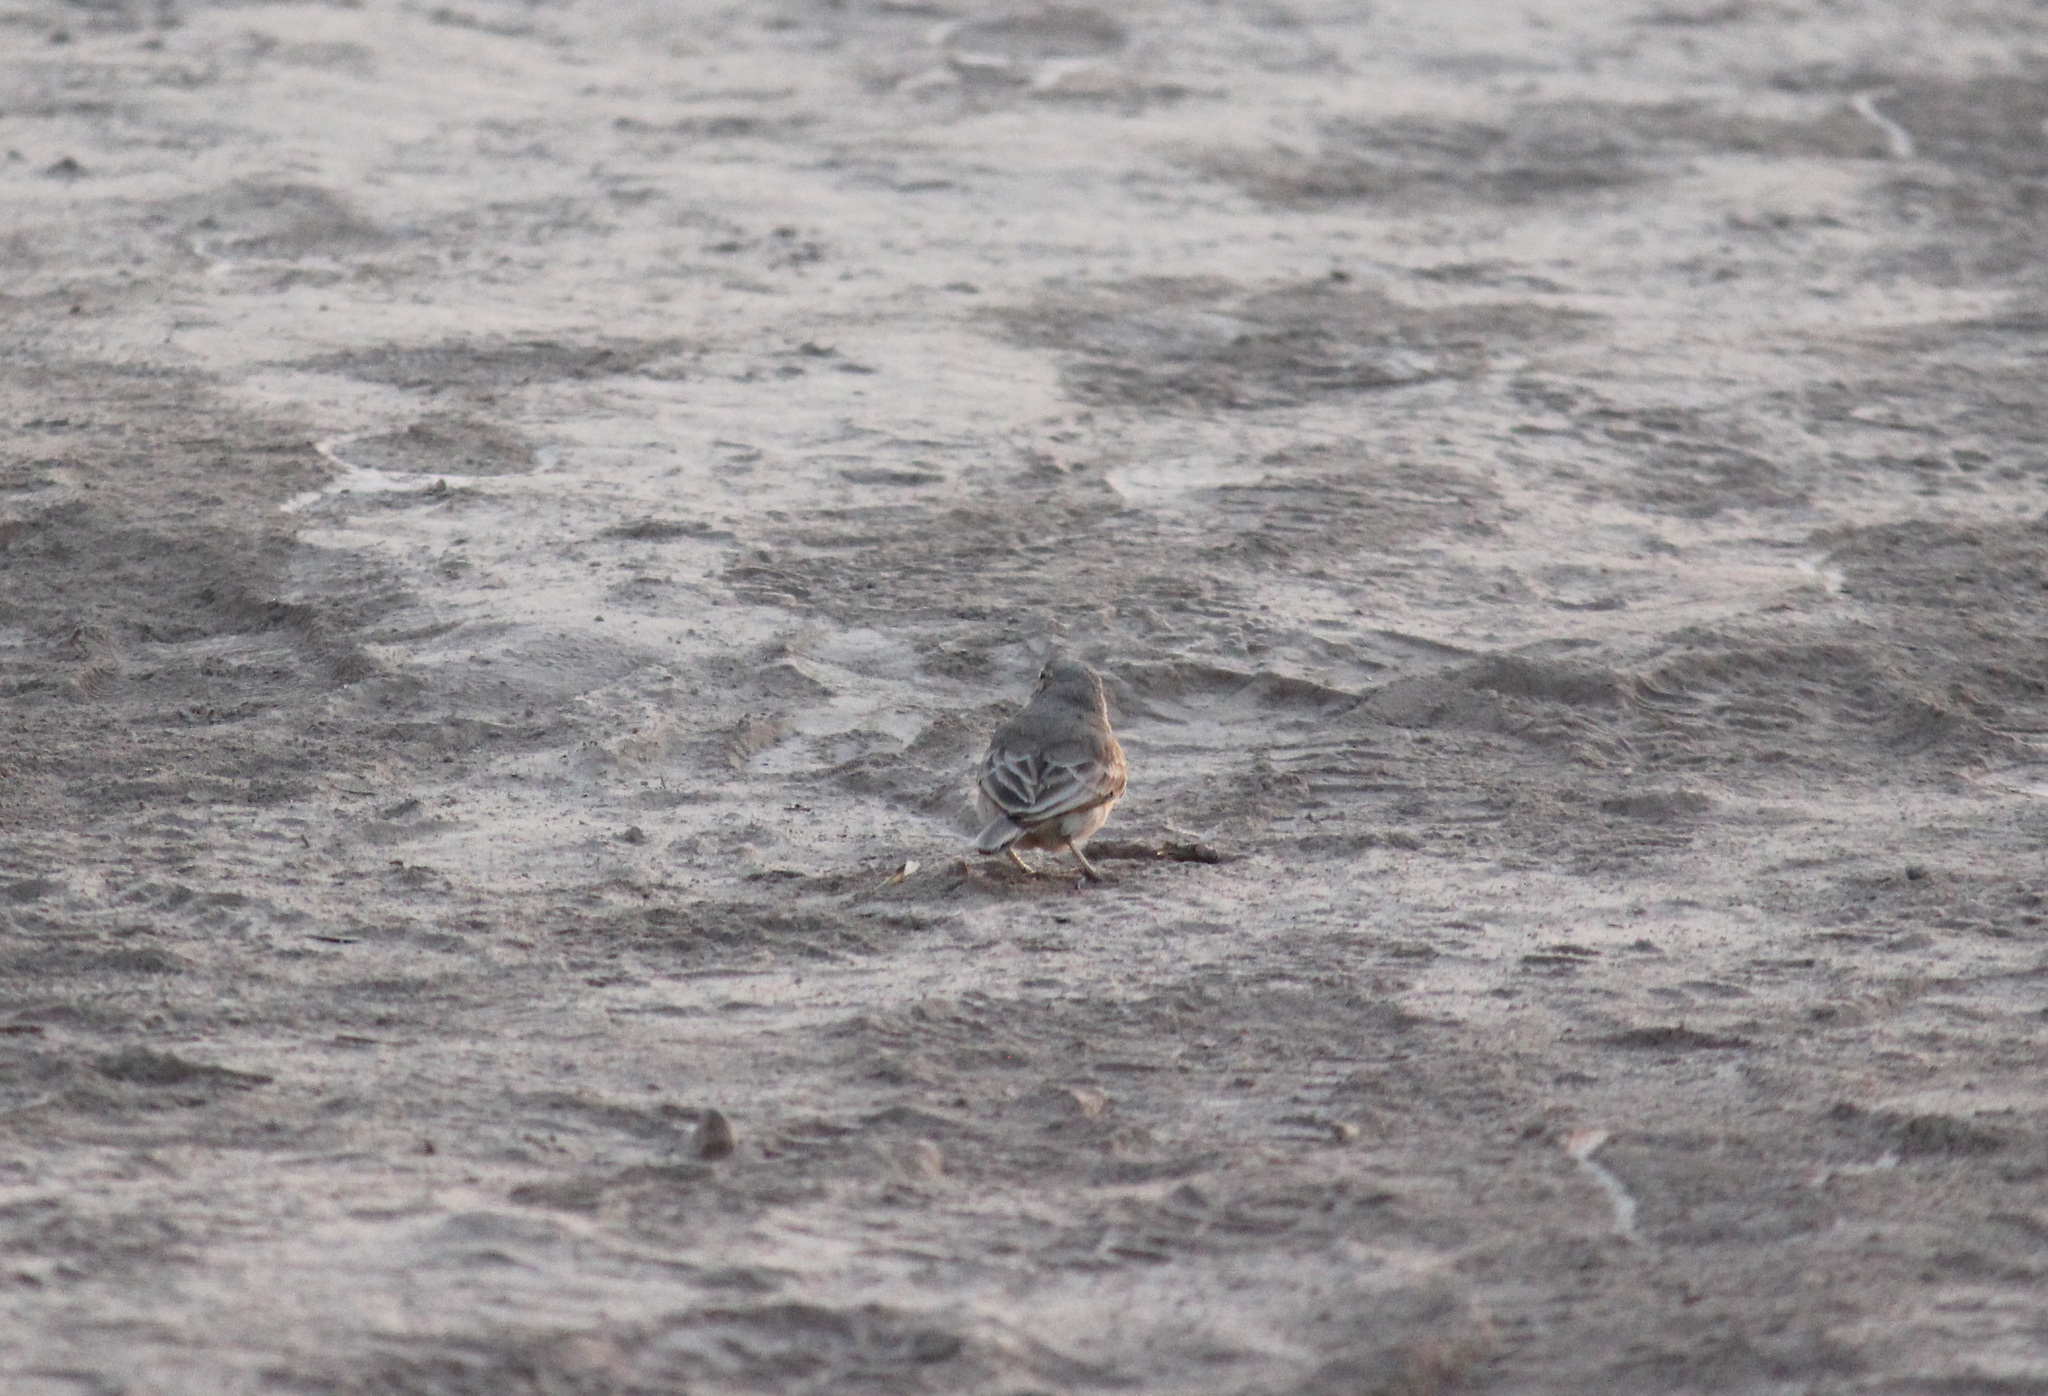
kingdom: Animalia
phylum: Chordata
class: Aves
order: Passeriformes
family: Furnariidae
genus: Geositta
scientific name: Geositta peruviana
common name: Coastal miner
